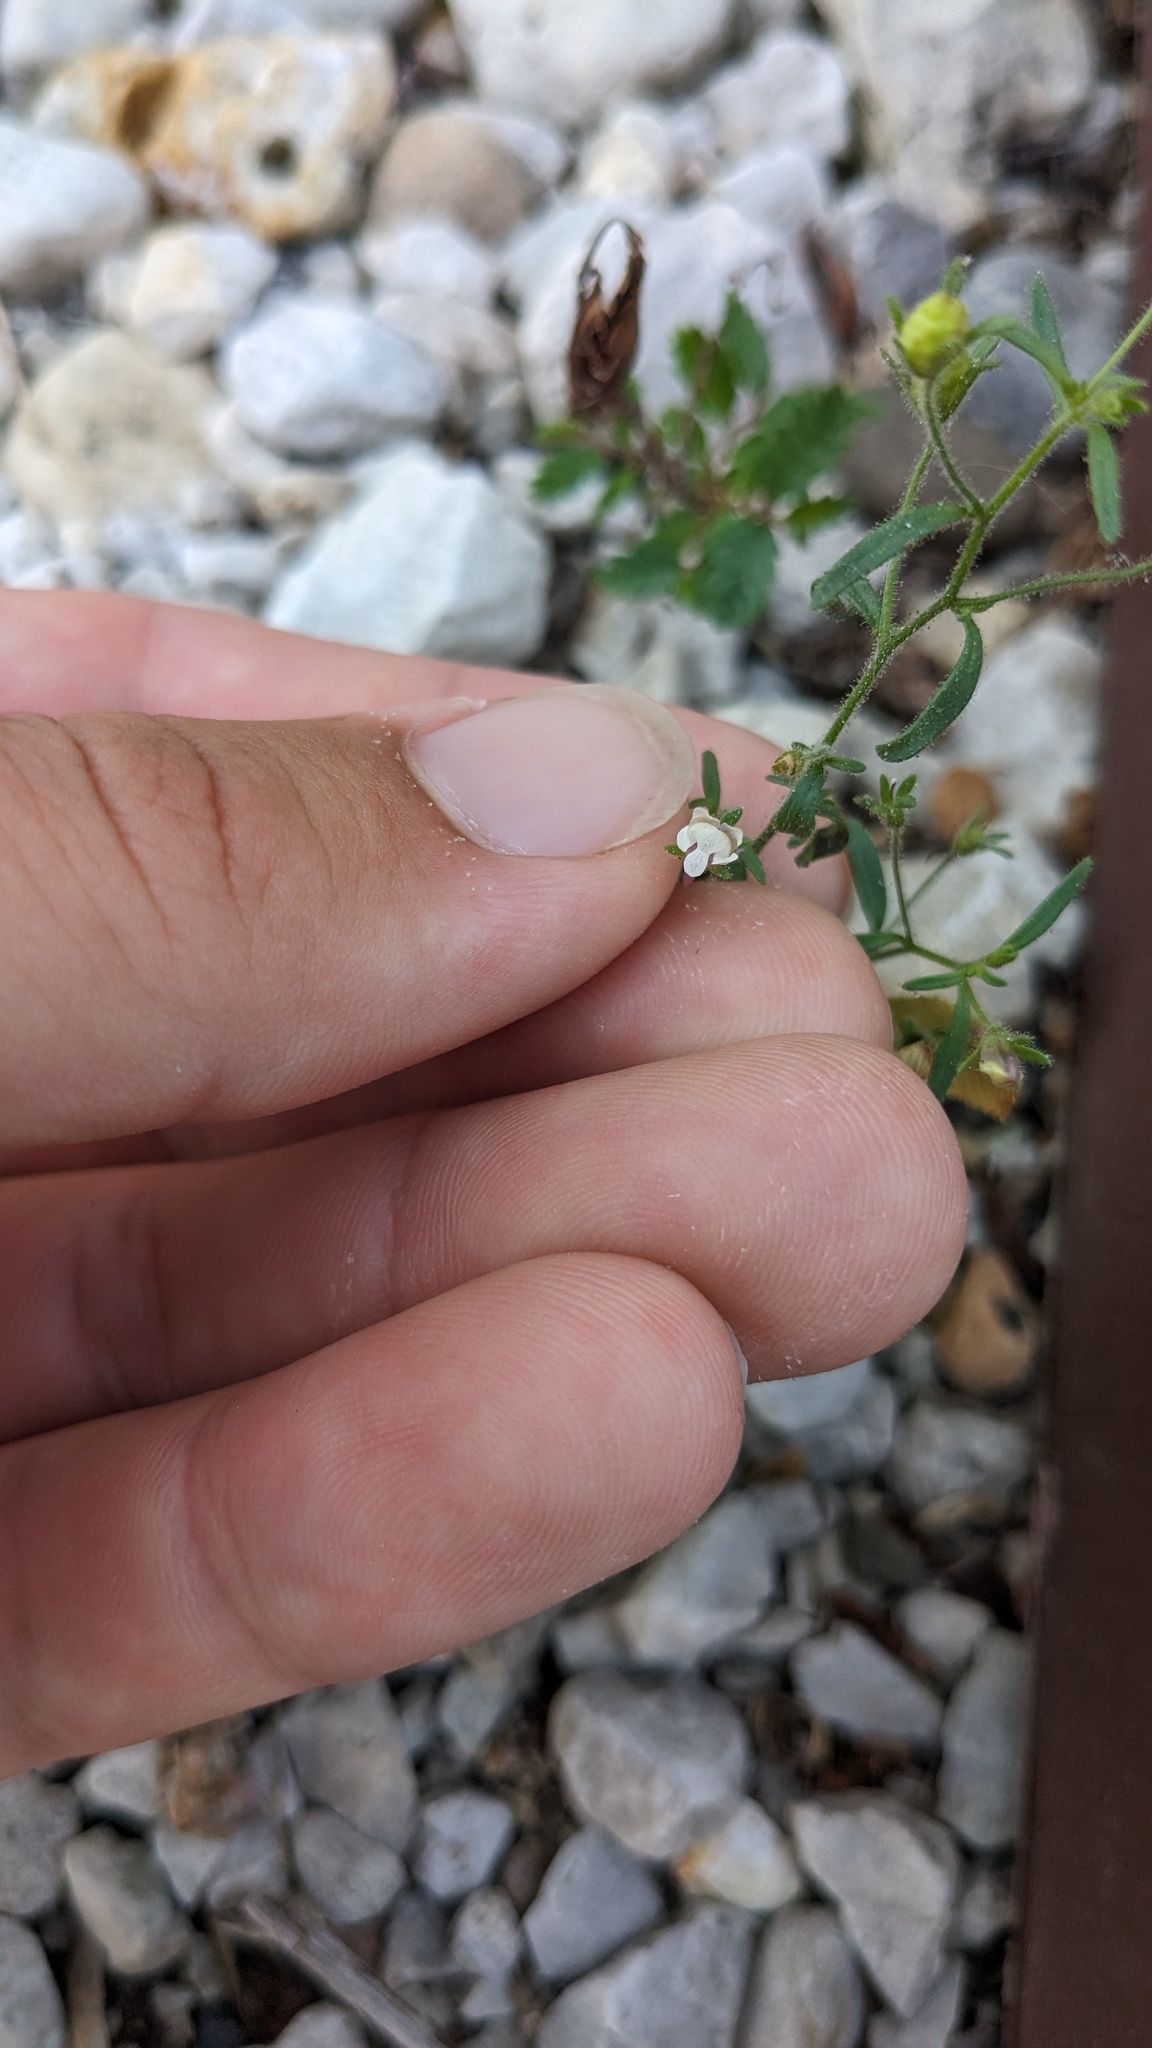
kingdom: Plantae
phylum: Tracheophyta
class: Magnoliopsida
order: Lamiales
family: Plantaginaceae
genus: Chaenorhinum
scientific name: Chaenorhinum minus
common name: Dwarf snapdragon
